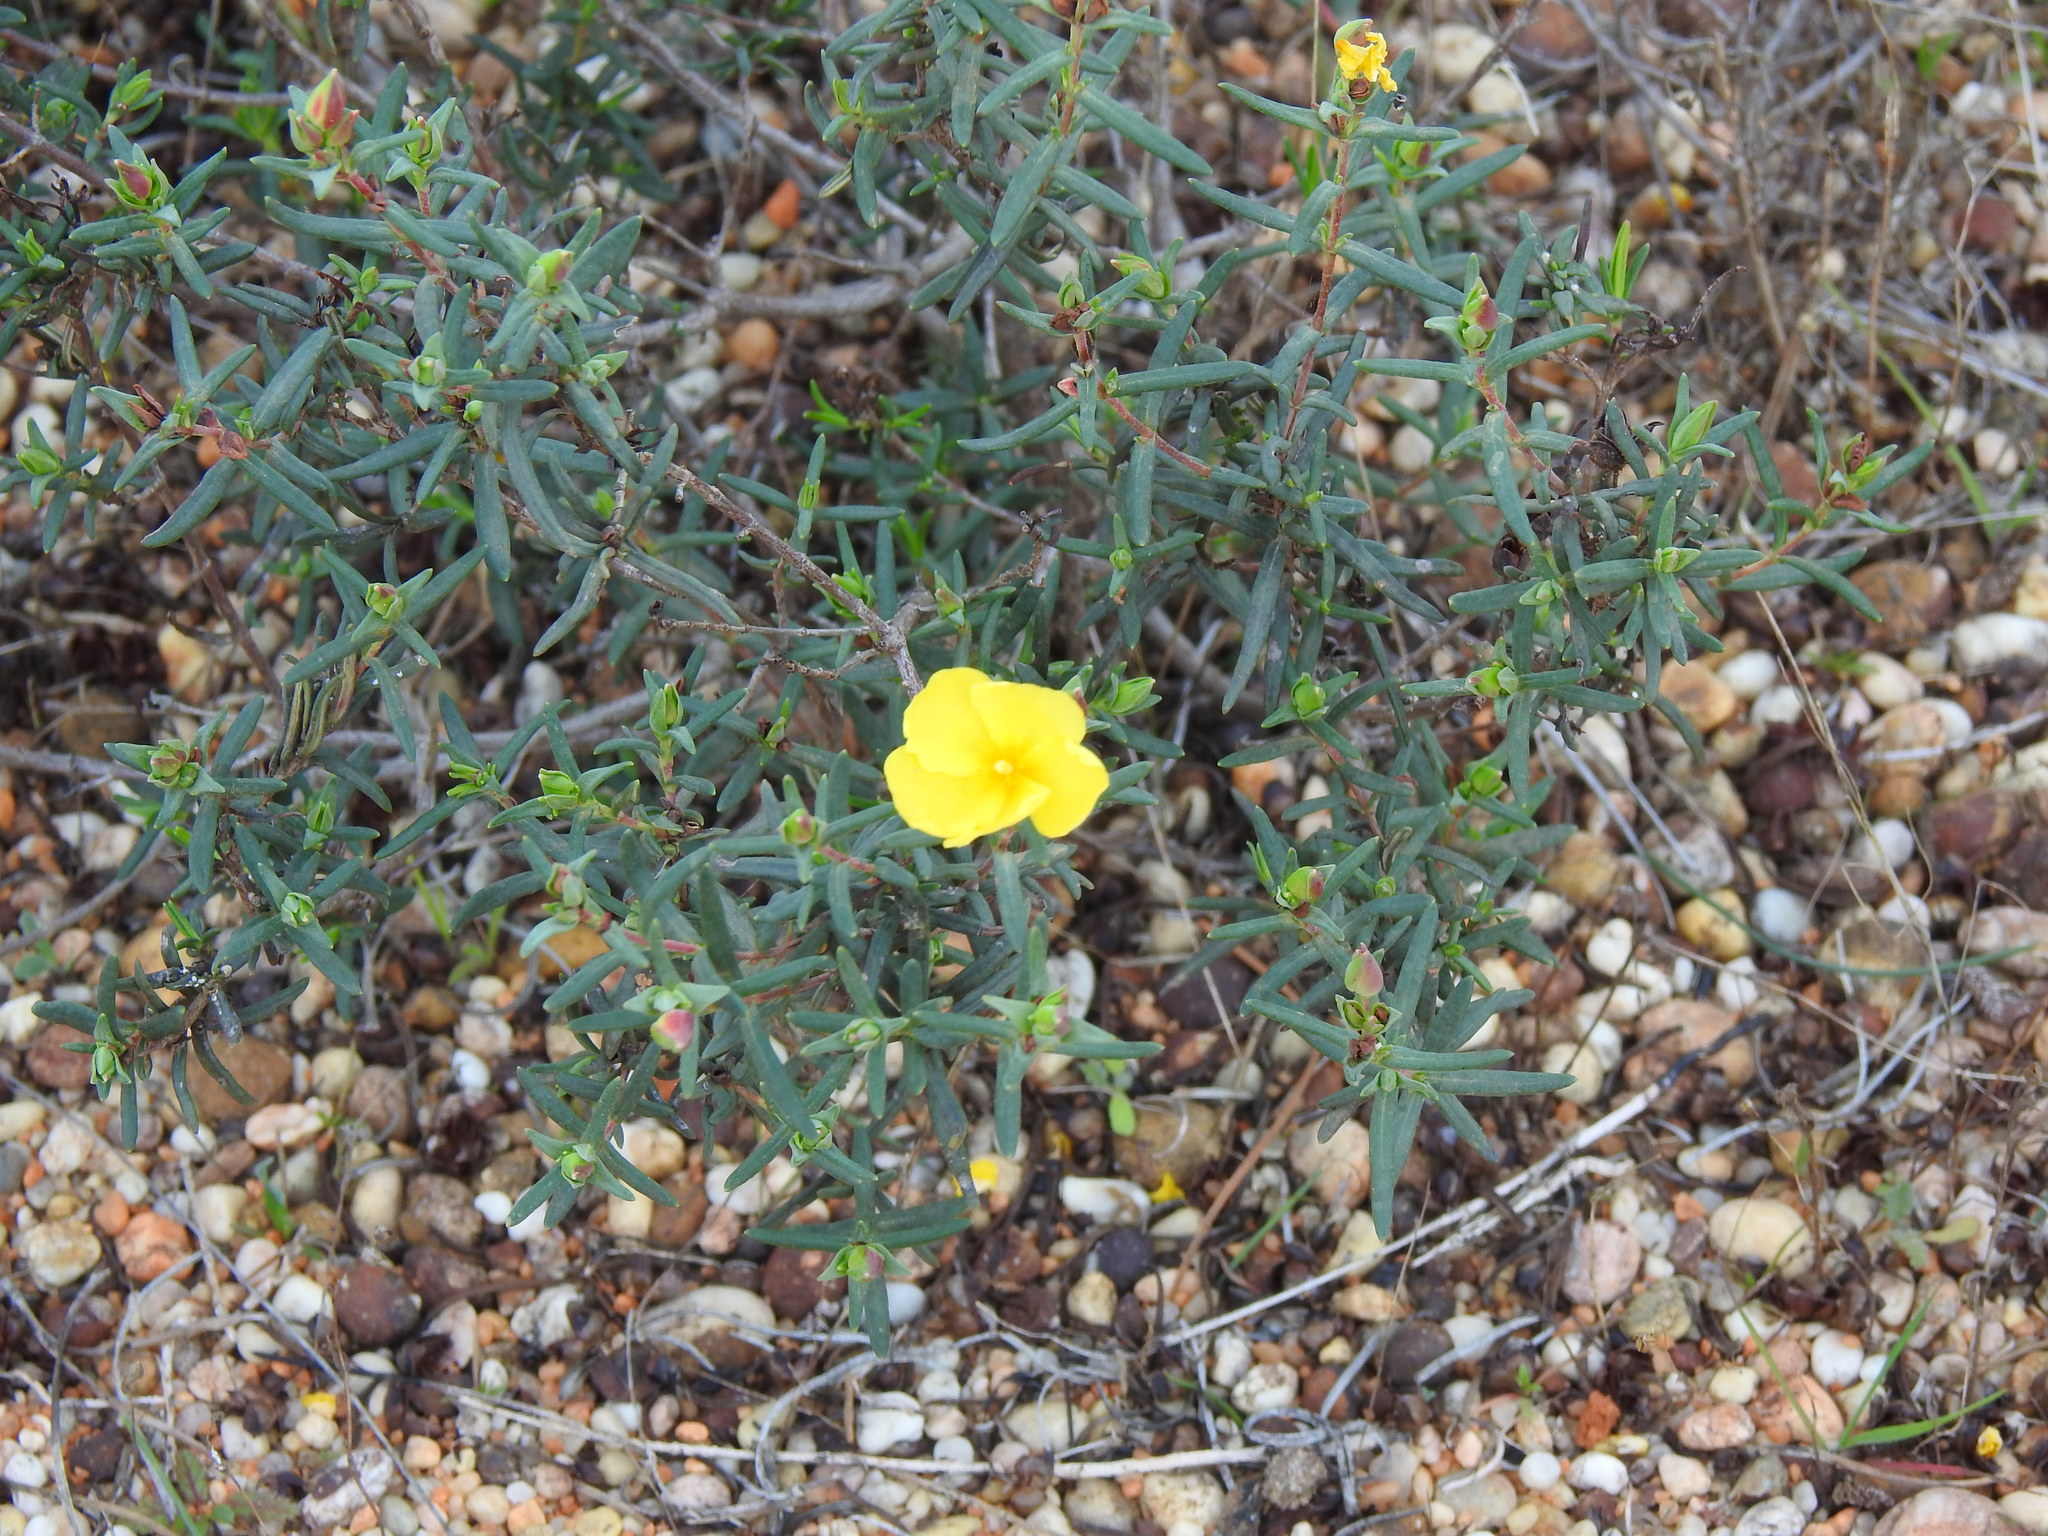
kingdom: Plantae
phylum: Tracheophyta
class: Magnoliopsida
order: Malvales
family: Cistaceae
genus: Halimium
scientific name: Halimium calycinum
